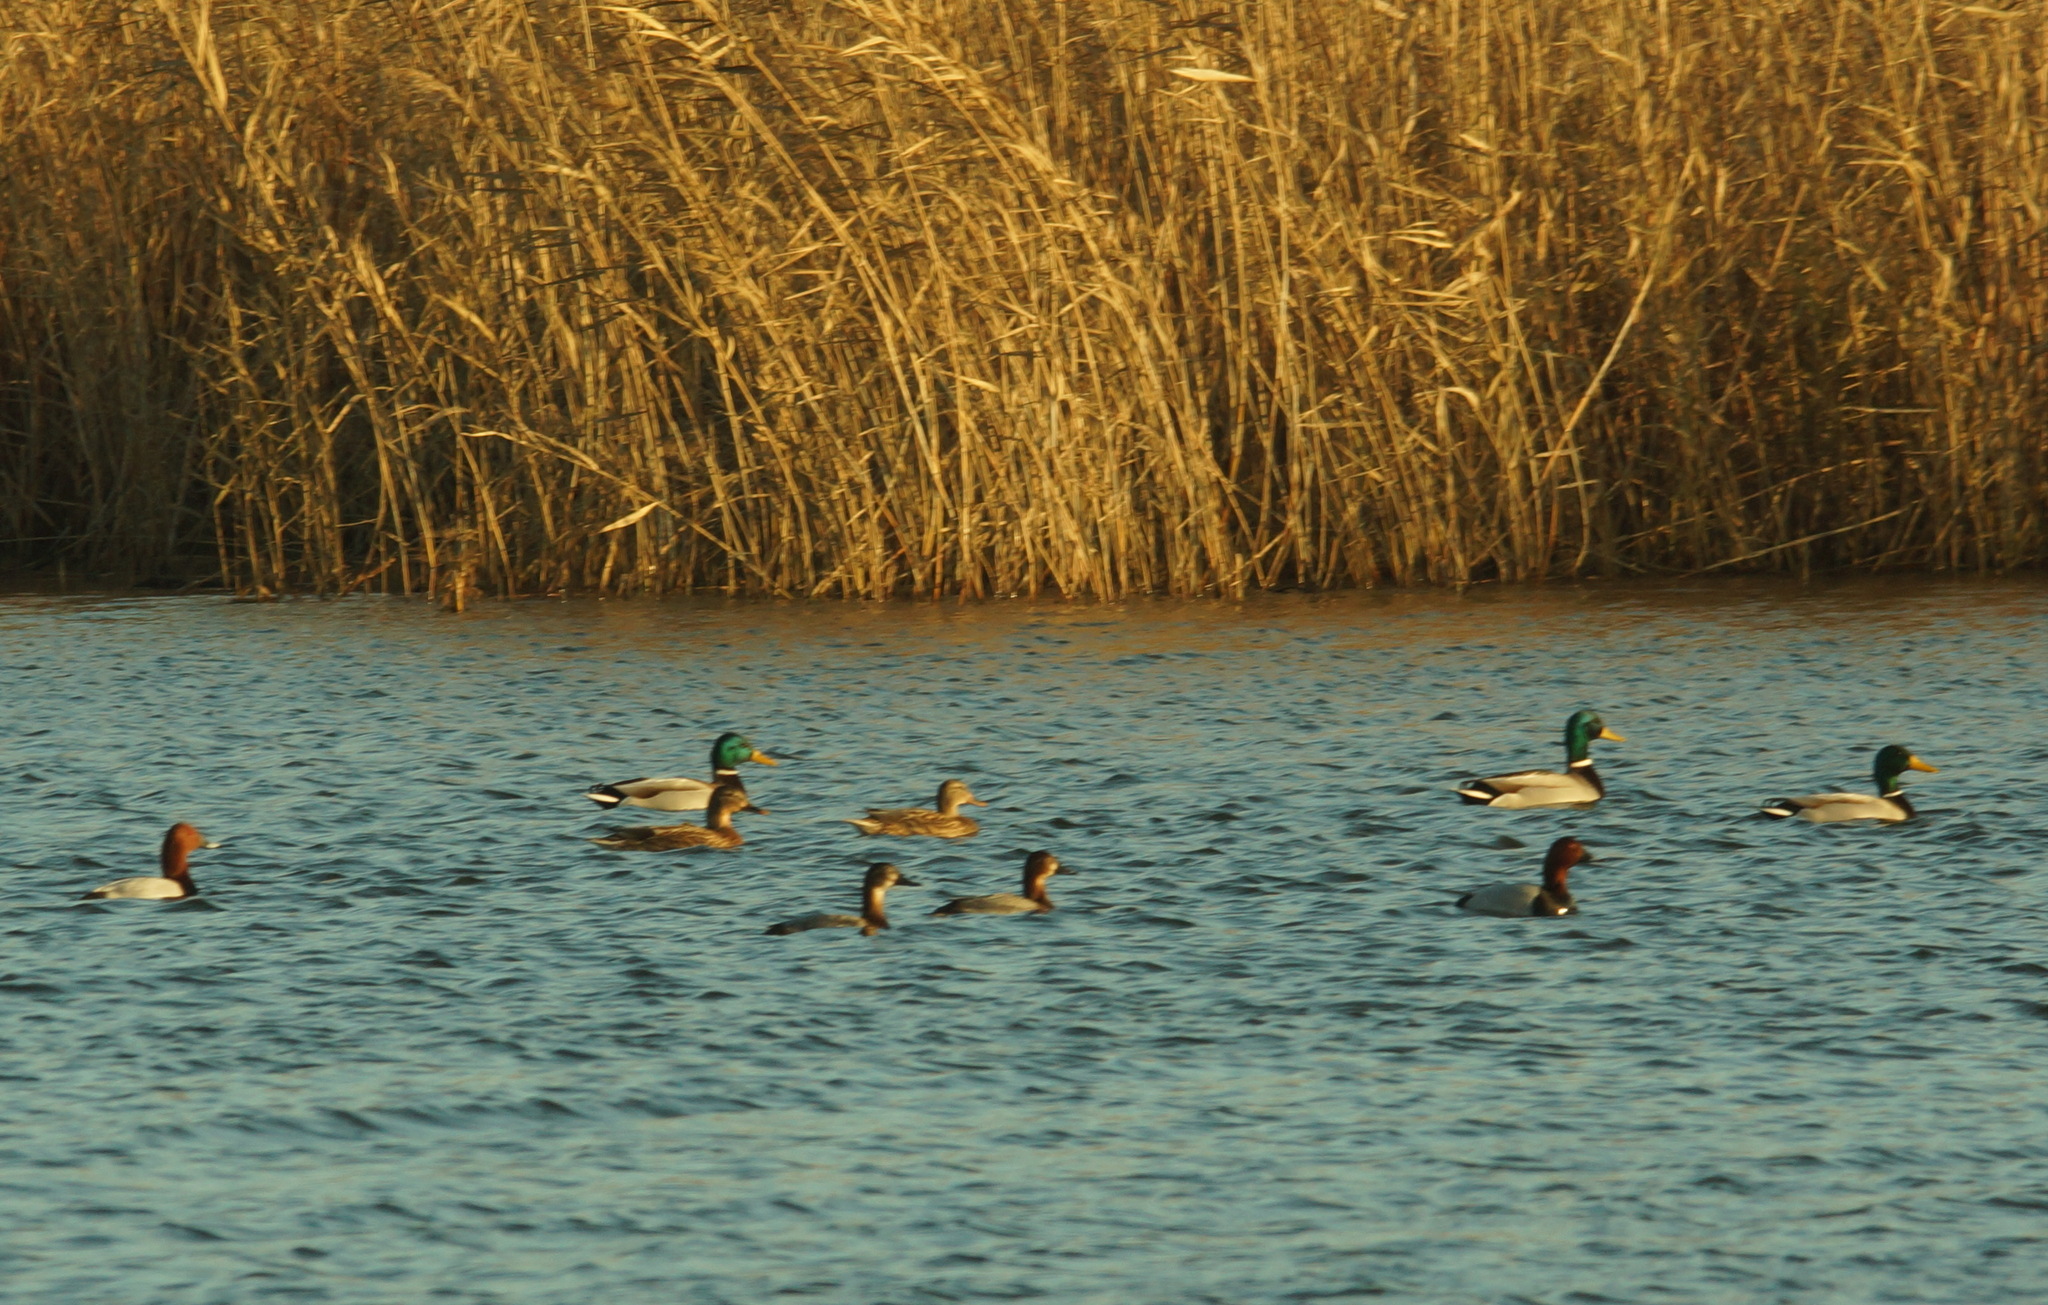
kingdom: Animalia
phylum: Chordata
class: Aves
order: Anseriformes
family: Anatidae
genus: Anas
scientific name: Anas platyrhynchos
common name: Mallard
